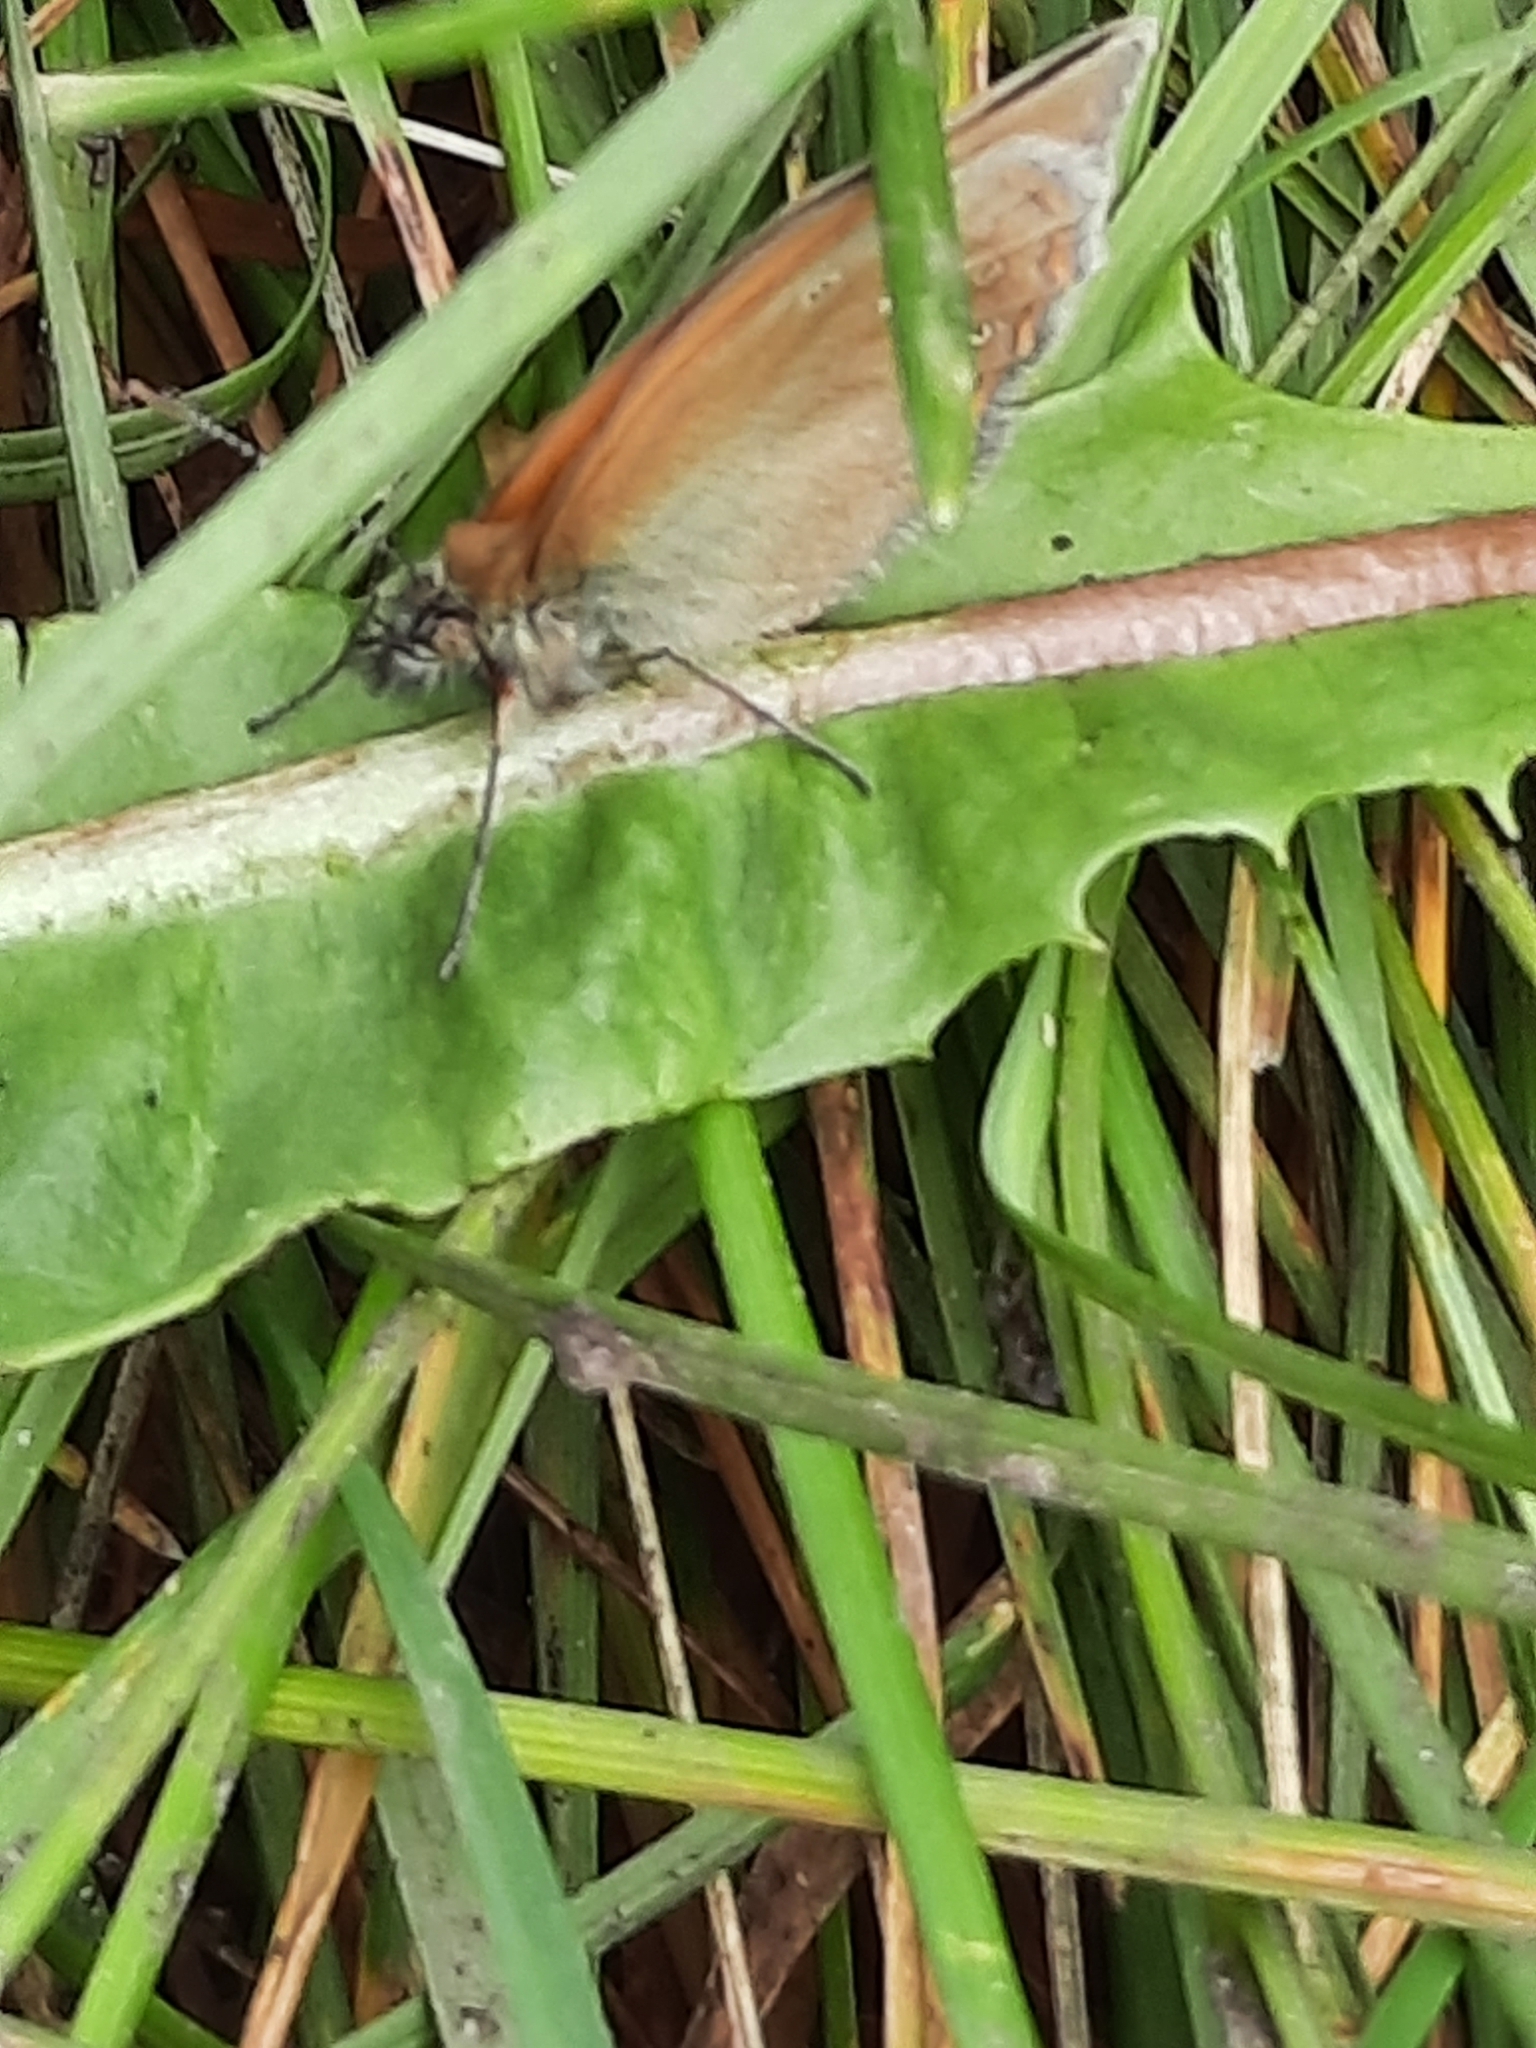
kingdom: Animalia
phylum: Arthropoda
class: Insecta
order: Lepidoptera
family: Nymphalidae
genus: Coenonympha
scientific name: Coenonympha iphis
